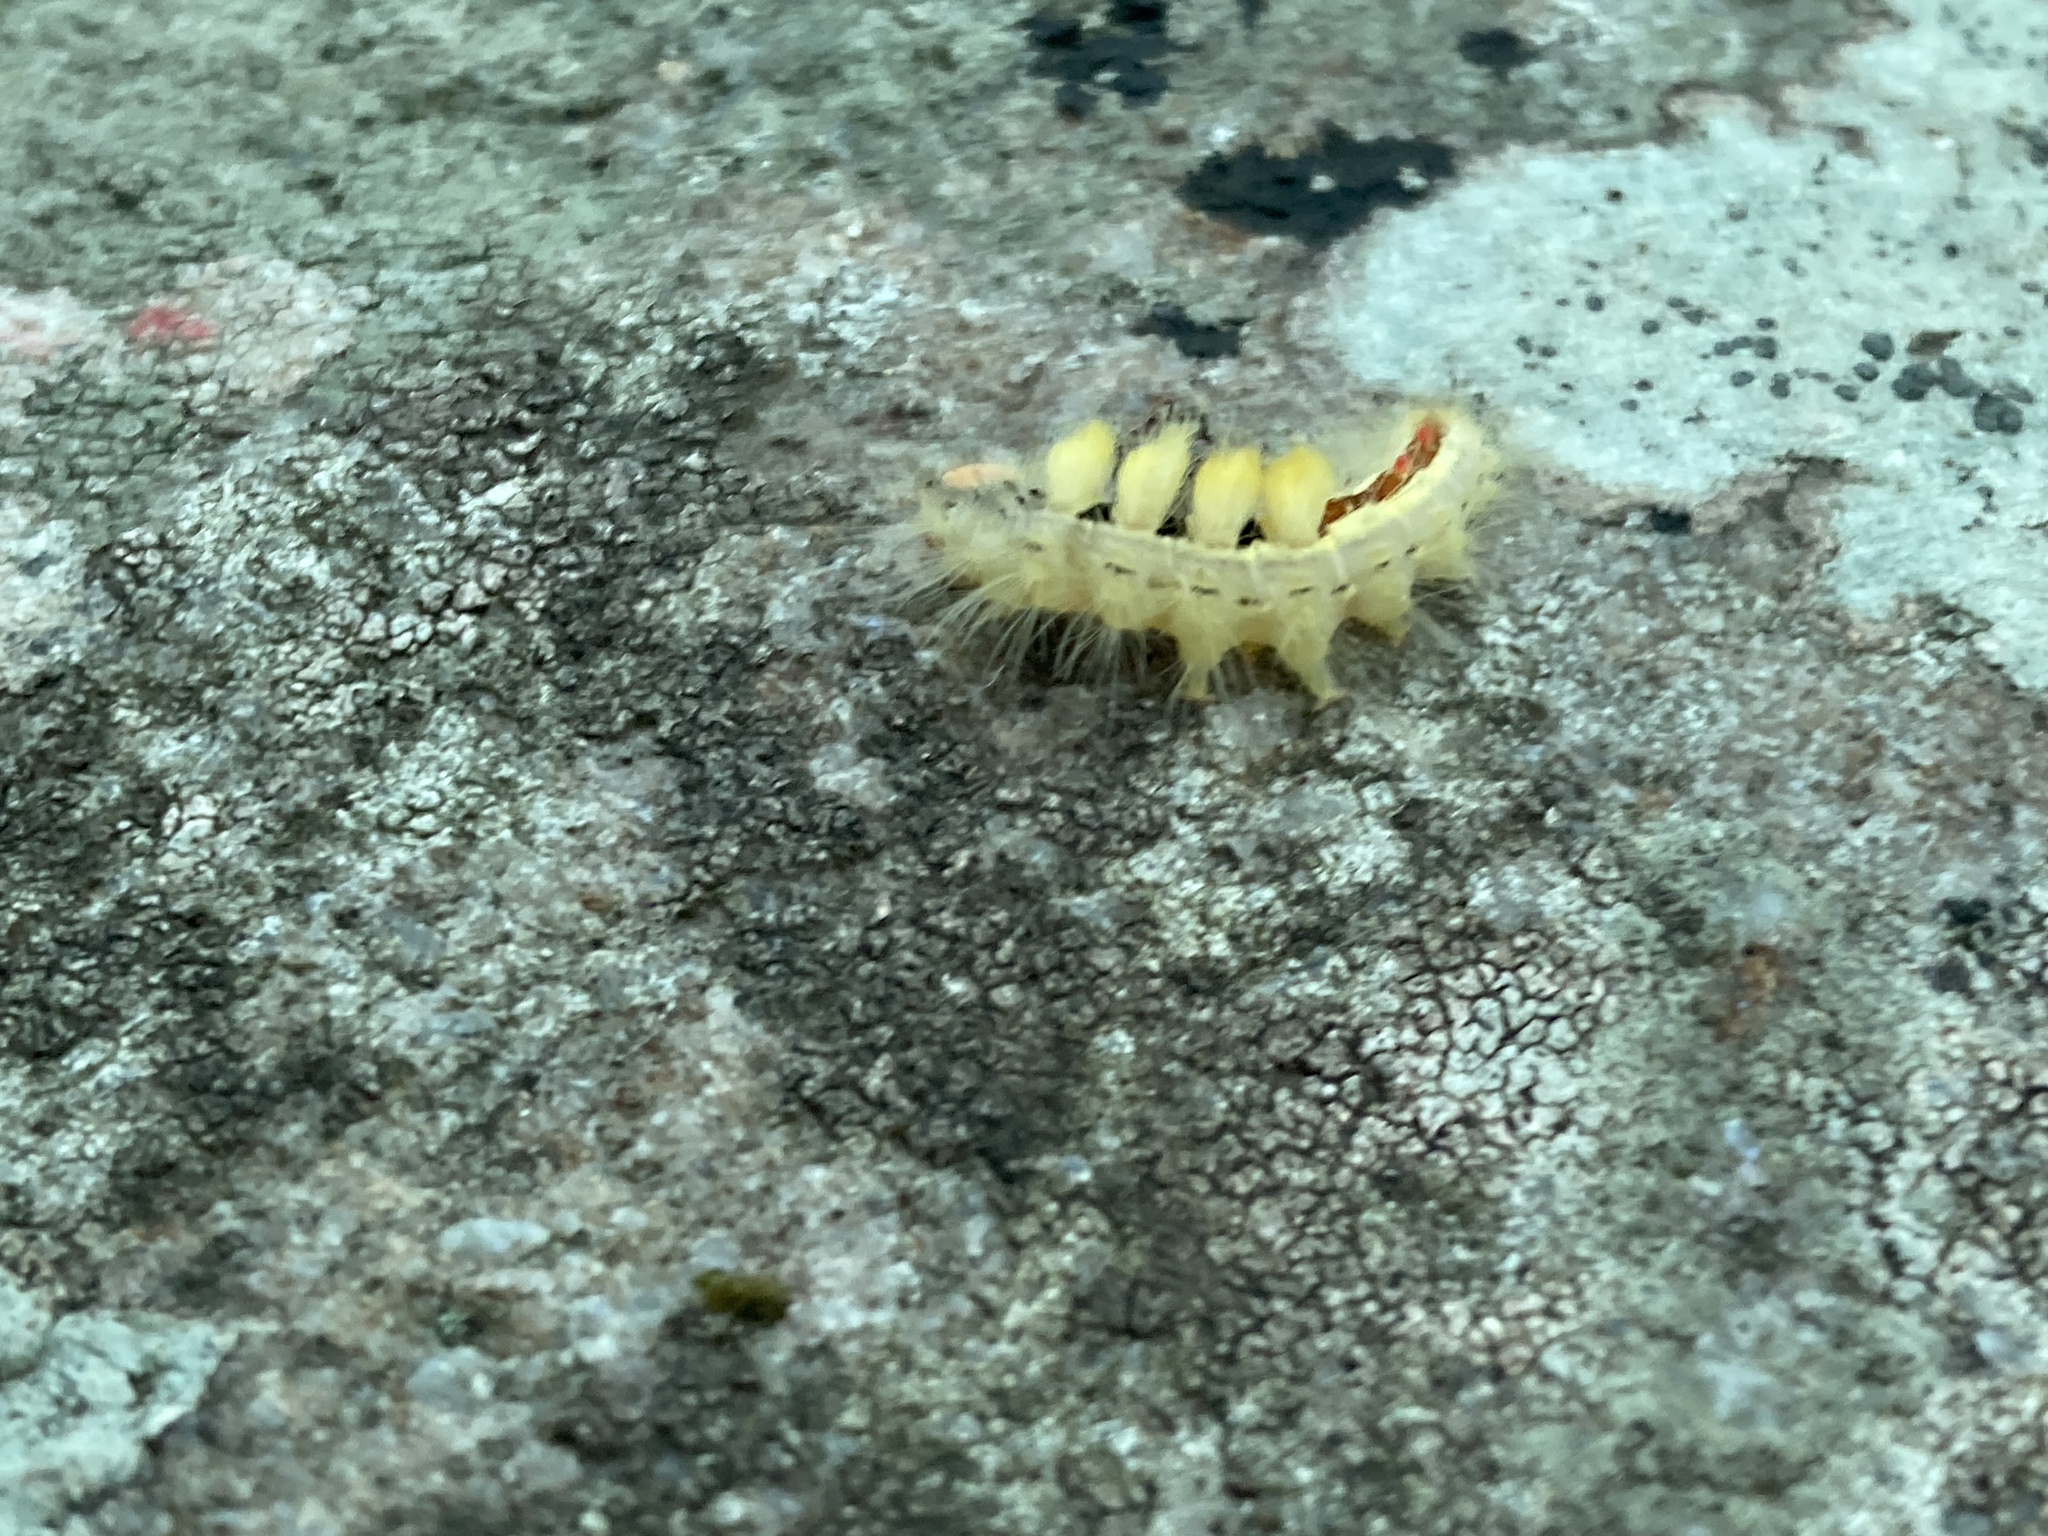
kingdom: Animalia
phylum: Arthropoda
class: Insecta
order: Lepidoptera
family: Erebidae
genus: Orgyia
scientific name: Orgyia leucostigma
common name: White-marked tussock moth
